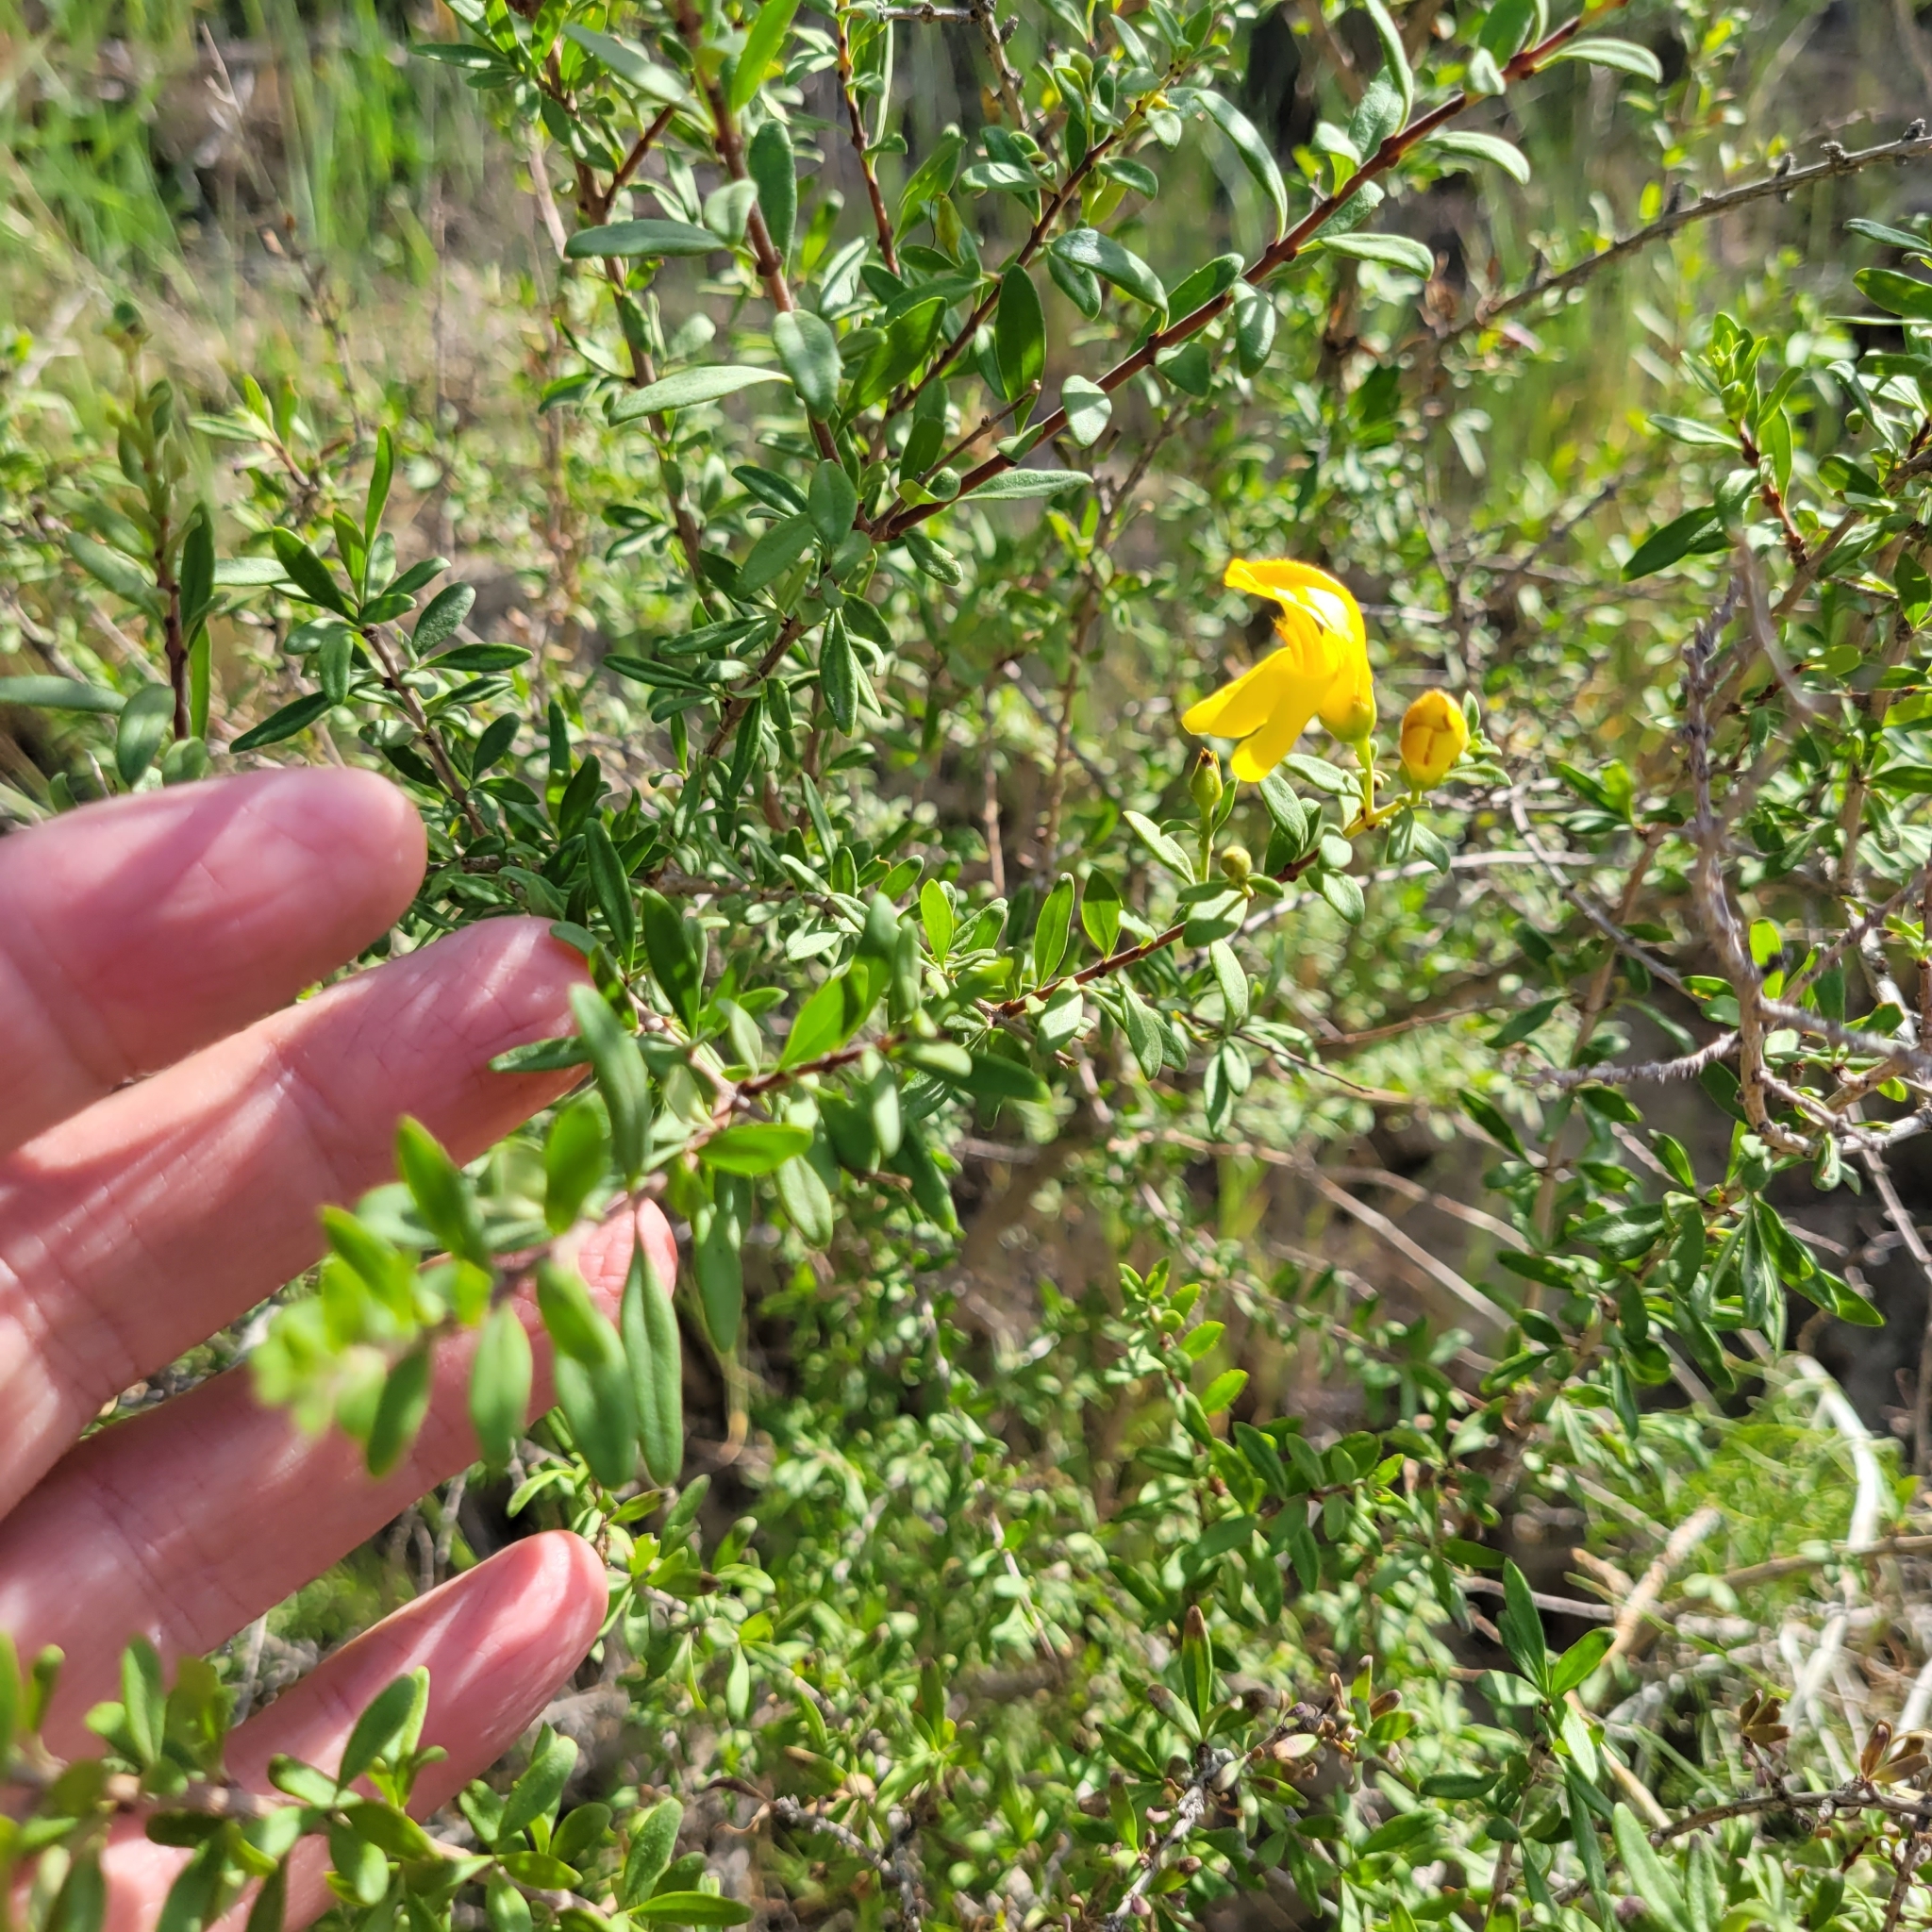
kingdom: Plantae
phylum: Tracheophyta
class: Magnoliopsida
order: Lamiales
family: Plantaginaceae
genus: Keckiella
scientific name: Keckiella antirrhinoides
